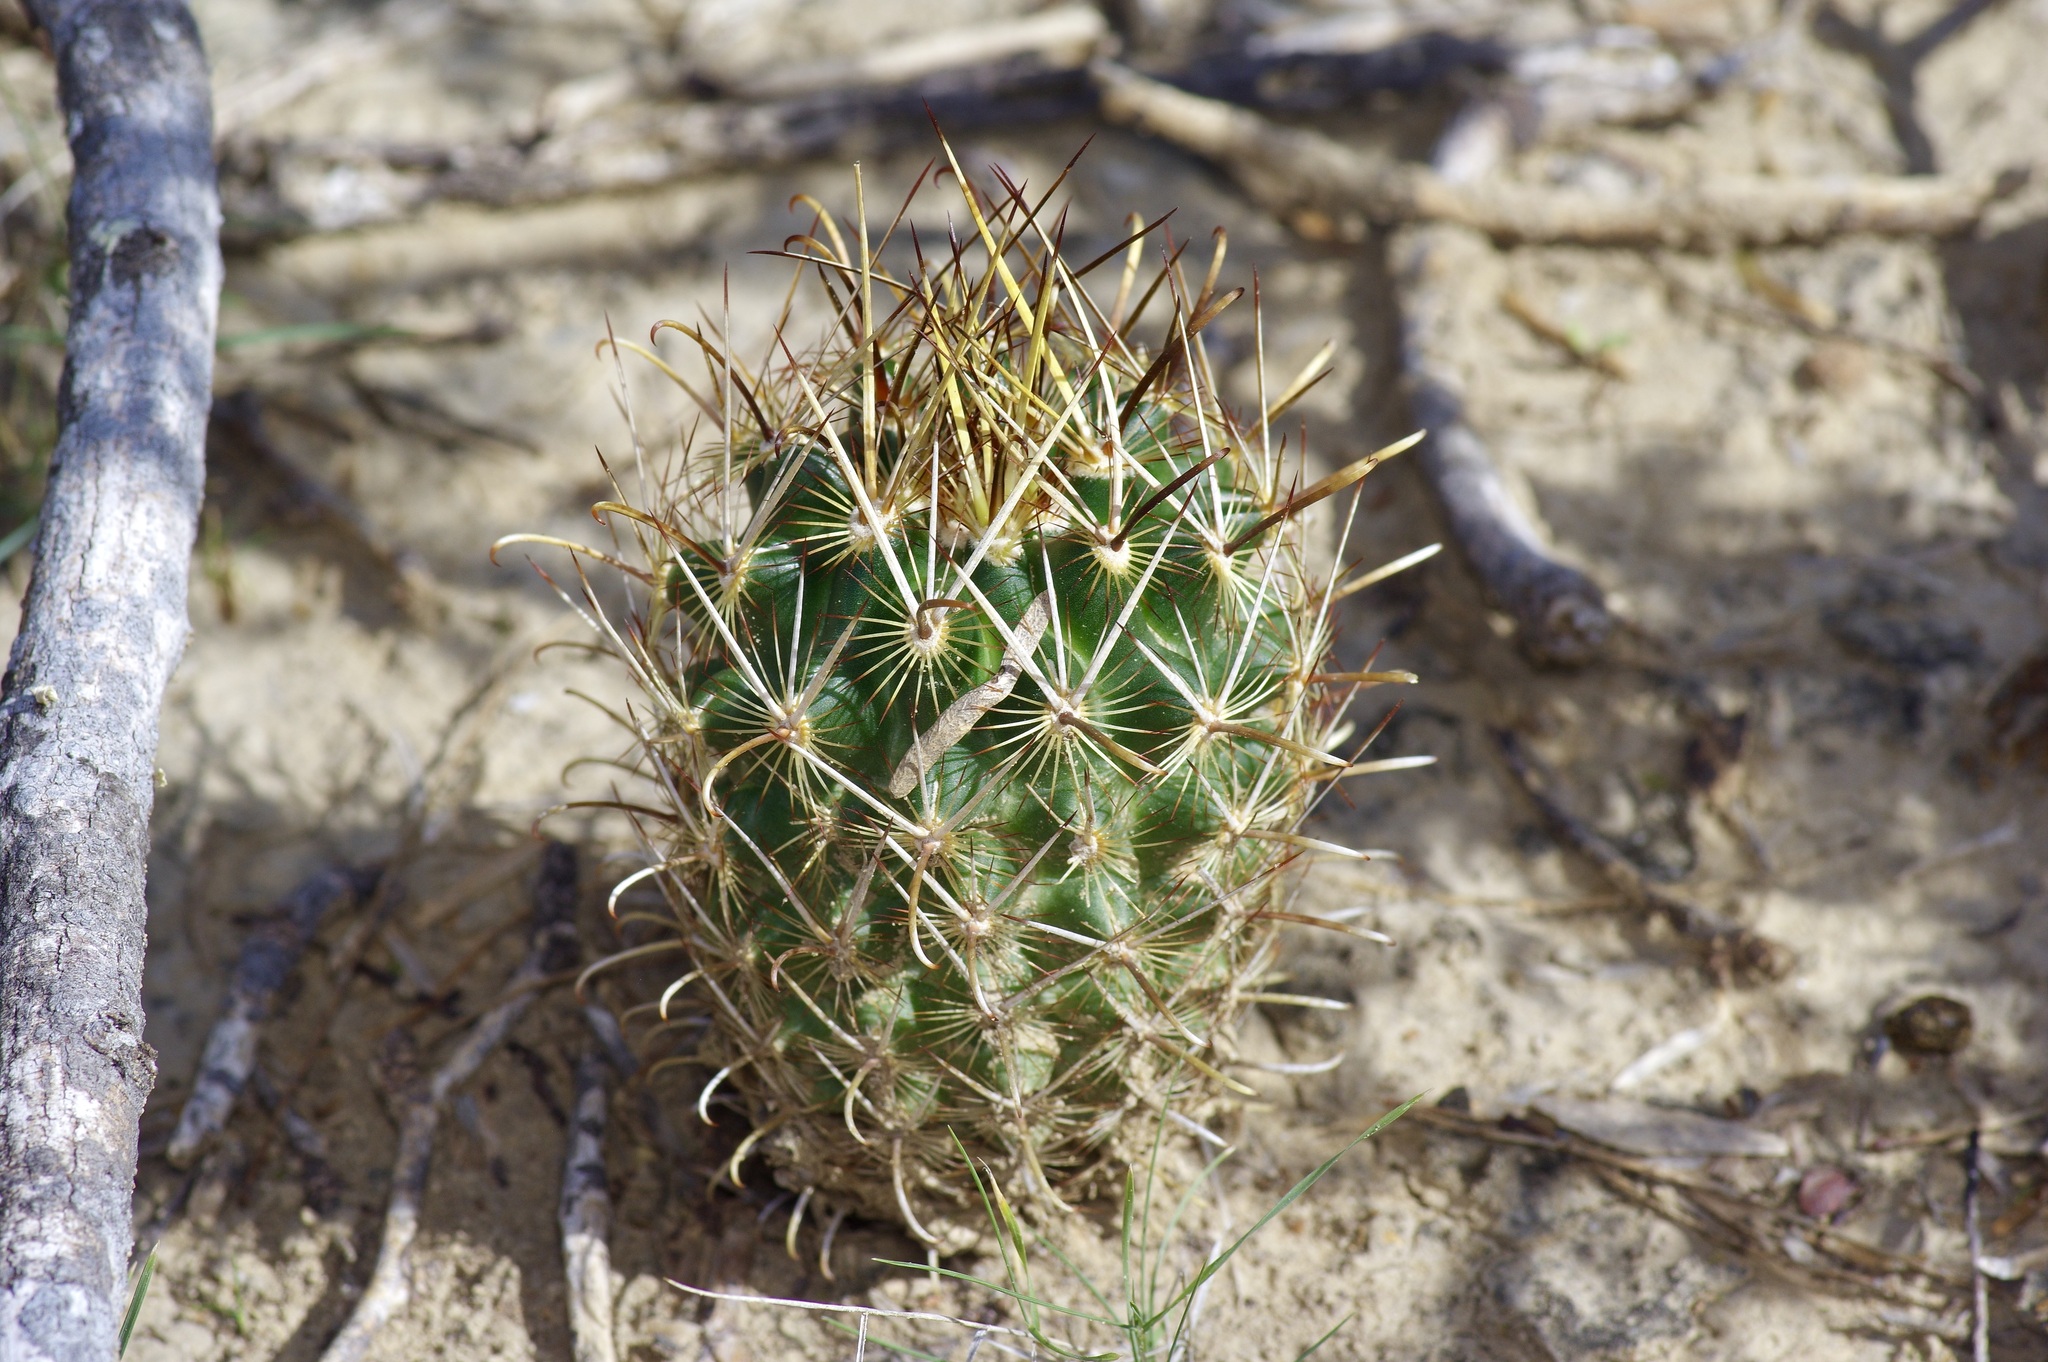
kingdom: Plantae
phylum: Tracheophyta
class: Magnoliopsida
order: Caryophyllales
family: Cactaceae
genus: Sclerocactus
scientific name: Sclerocactus scheerii
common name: Scheer's fish-hook cactus
